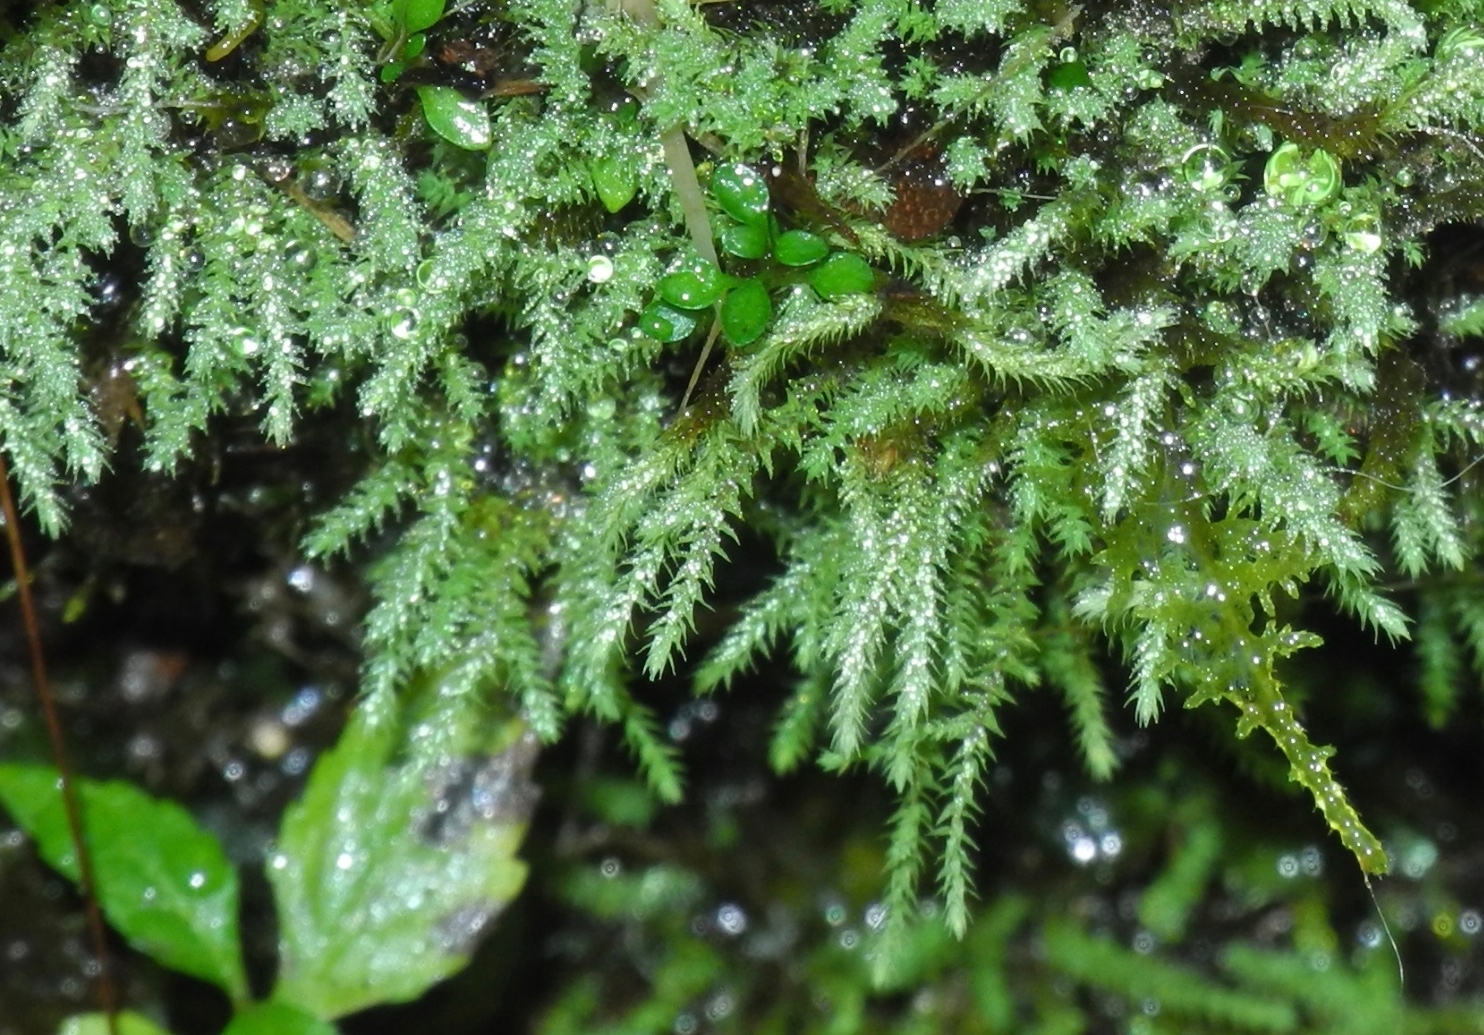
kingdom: Plantae
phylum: Bryophyta
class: Bryopsida
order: Bartramiales
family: Bartramiaceae
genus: Philonotis
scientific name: Philonotis fontana
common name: Fountain apple-moss
